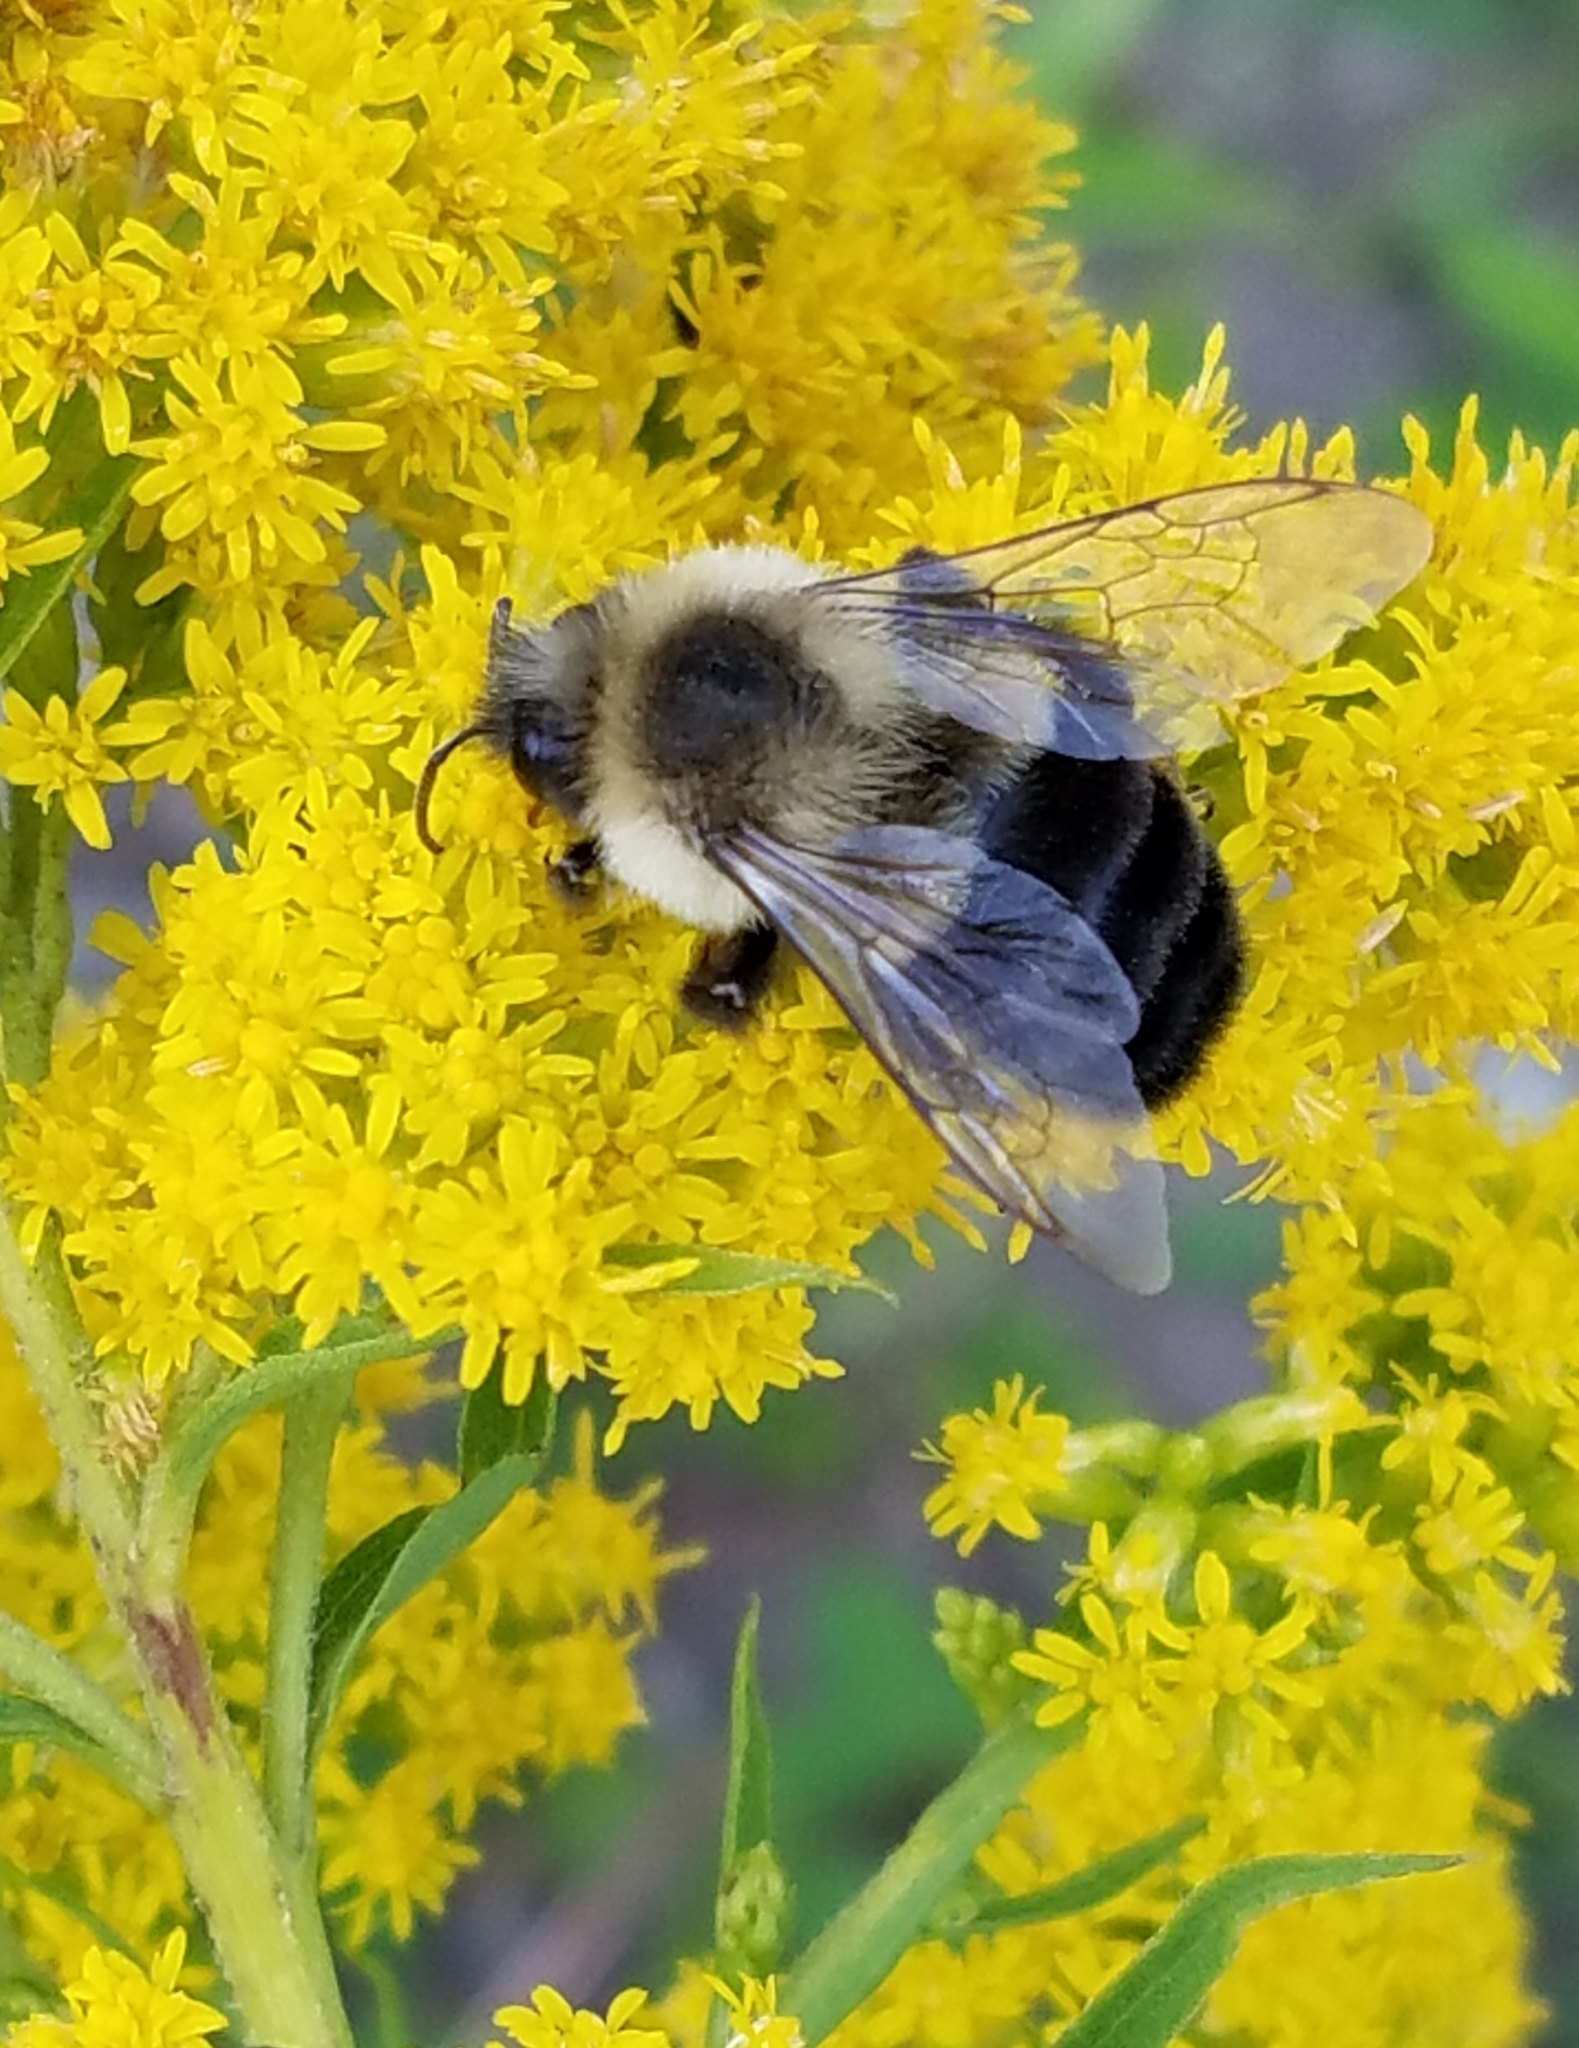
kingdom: Animalia
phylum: Arthropoda
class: Insecta
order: Hymenoptera
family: Apidae
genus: Bombus
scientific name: Bombus impatiens
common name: Common eastern bumble bee
